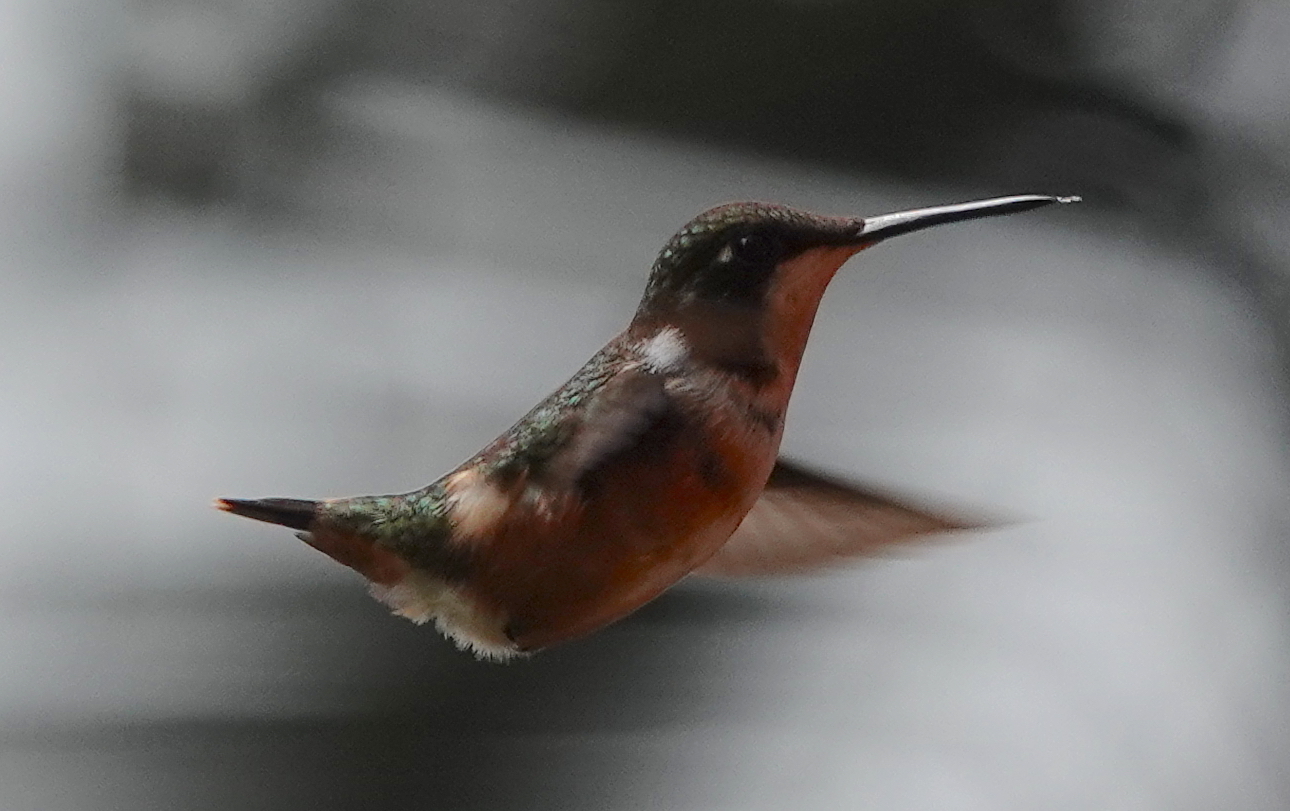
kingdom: Animalia
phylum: Chordata
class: Aves
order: Apodiformes
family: Trochilidae
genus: Chaetocercus
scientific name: Chaetocercus mulsant
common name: White-bellied woodstar
